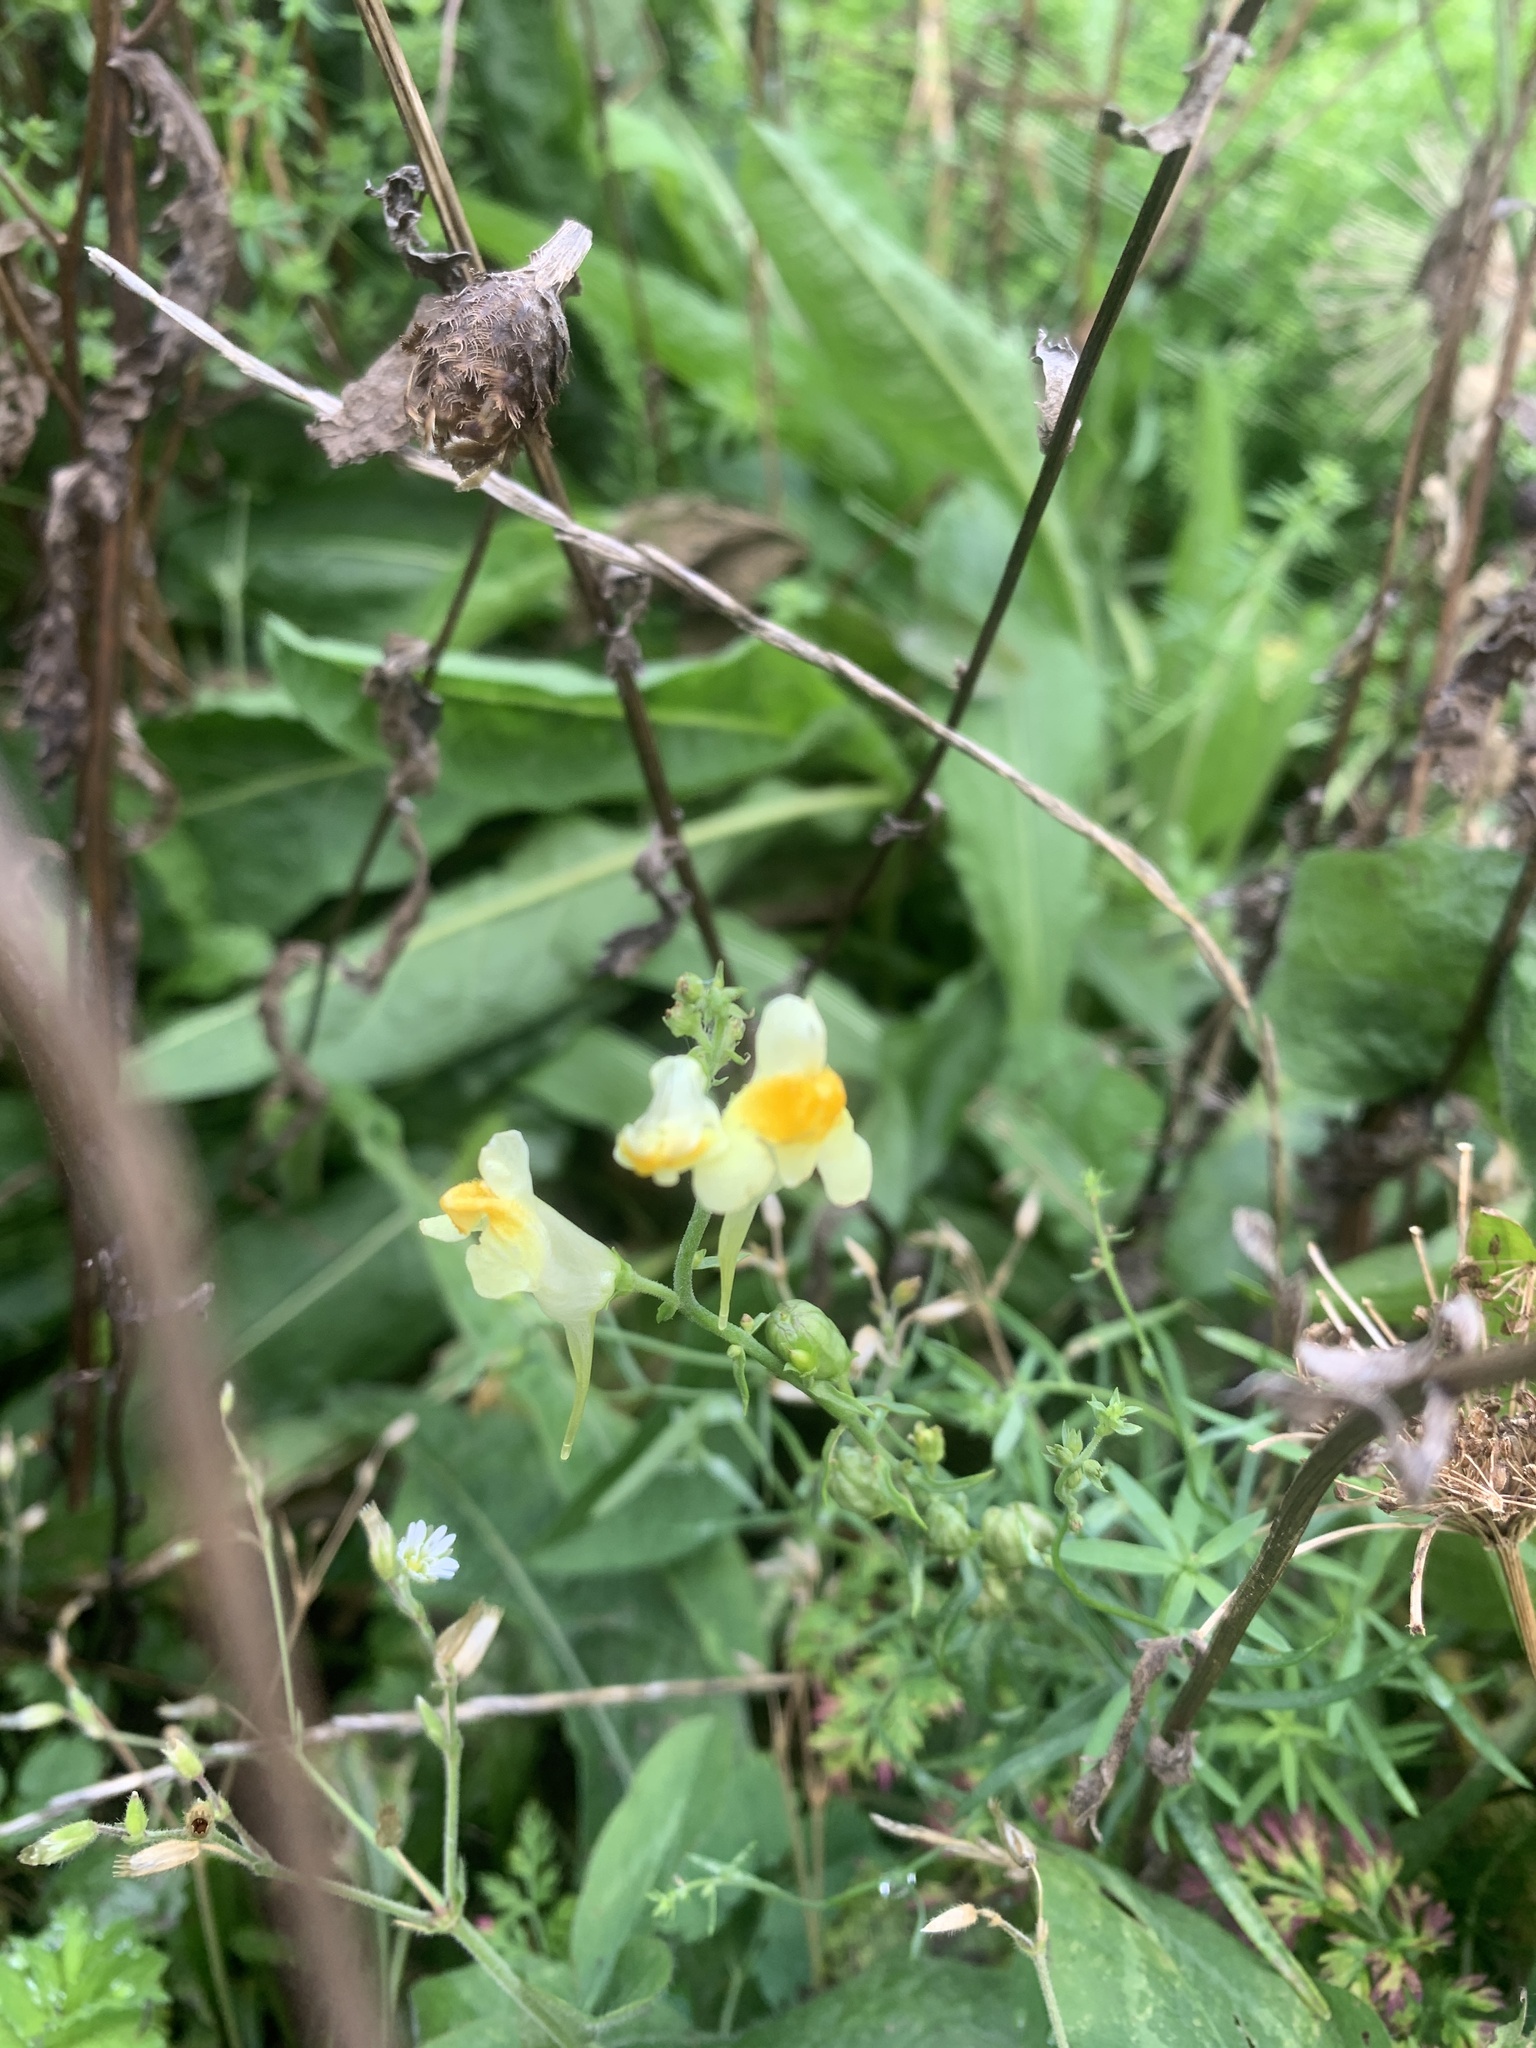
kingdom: Plantae
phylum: Tracheophyta
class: Magnoliopsida
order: Lamiales
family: Plantaginaceae
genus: Linaria
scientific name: Linaria vulgaris
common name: Butter and eggs
